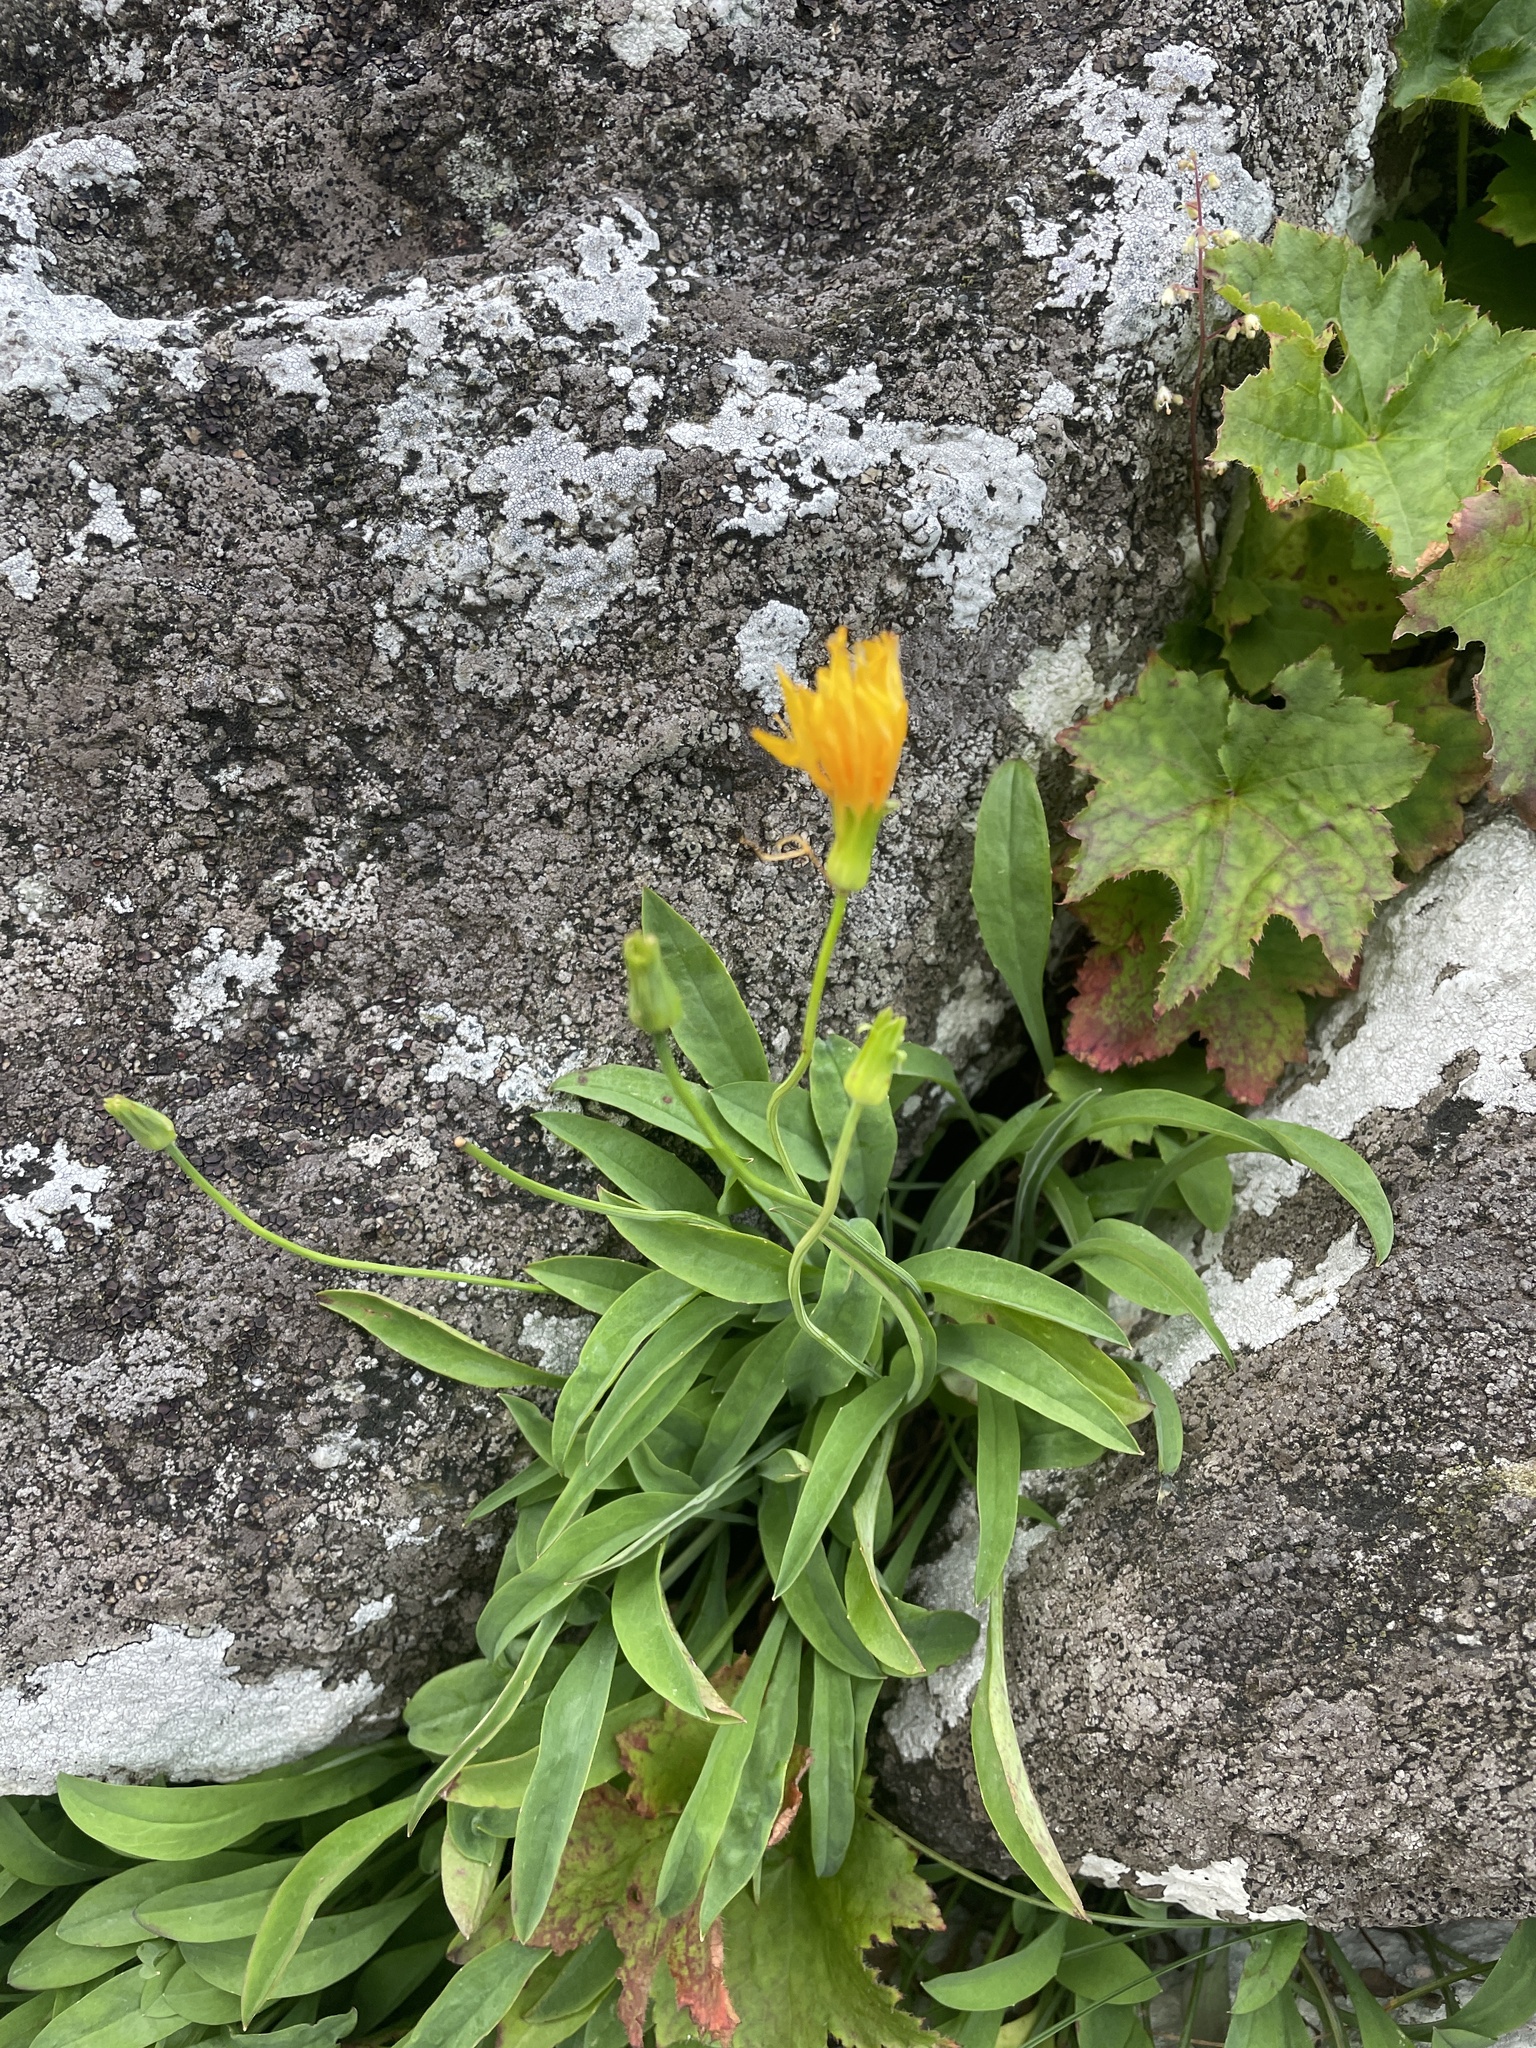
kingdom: Plantae
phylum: Tracheophyta
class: Magnoliopsida
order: Asterales
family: Asteraceae
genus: Krigia
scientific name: Krigia montana
